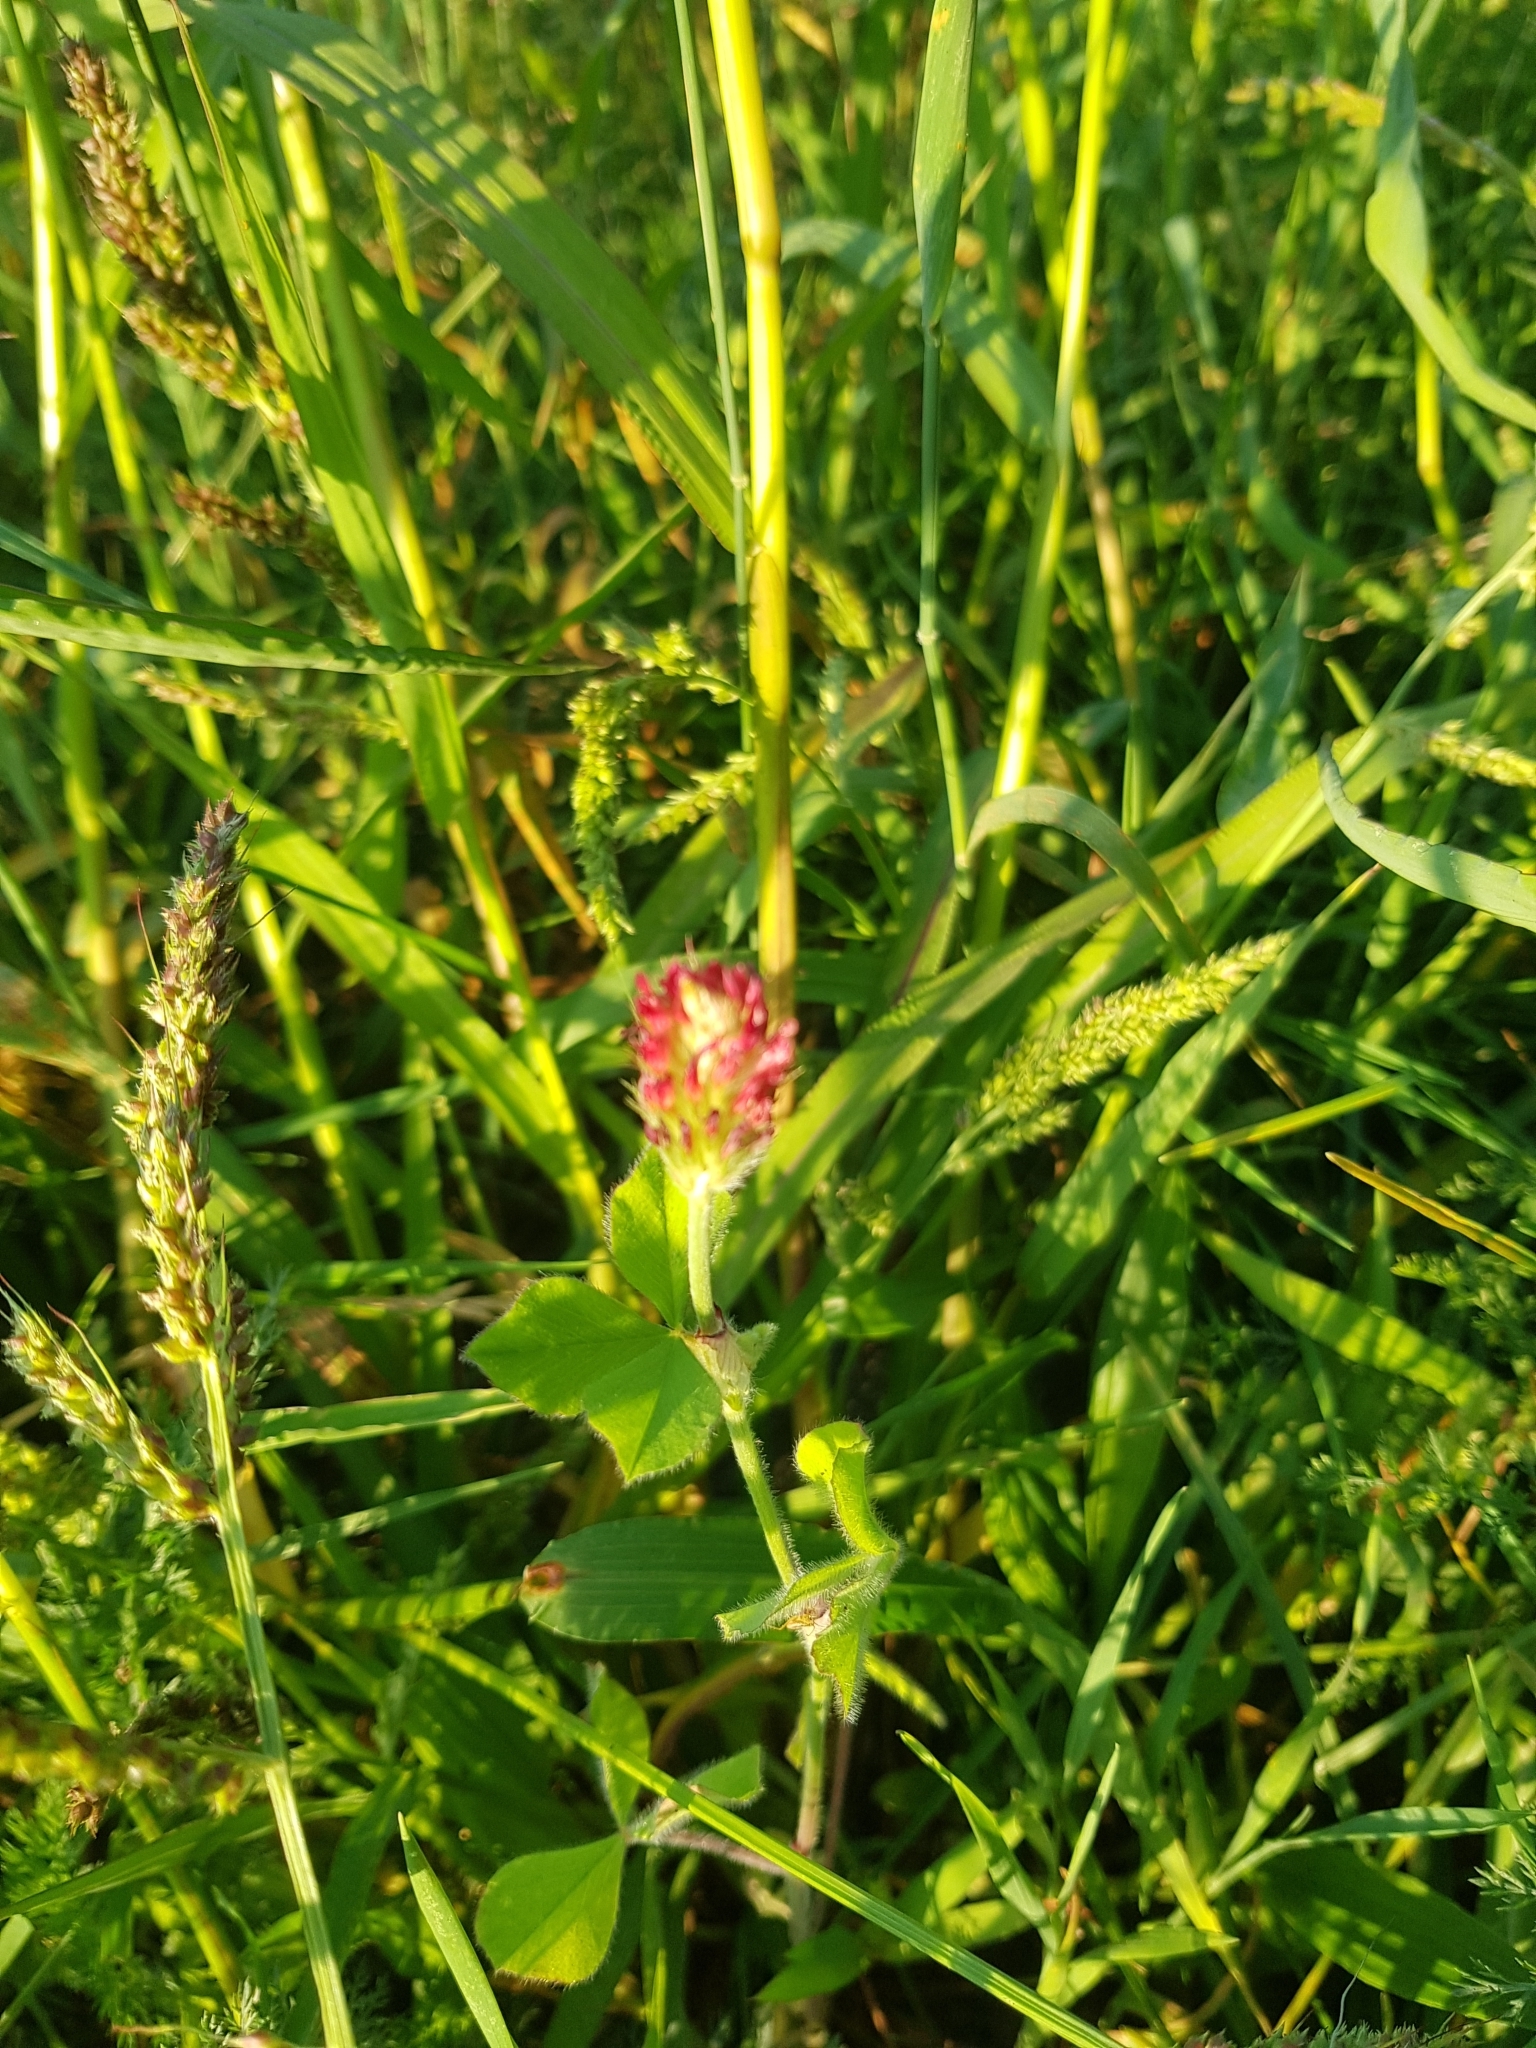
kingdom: Plantae
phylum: Tracheophyta
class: Magnoliopsida
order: Fabales
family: Fabaceae
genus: Trifolium
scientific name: Trifolium incarnatum
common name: Crimson clover
